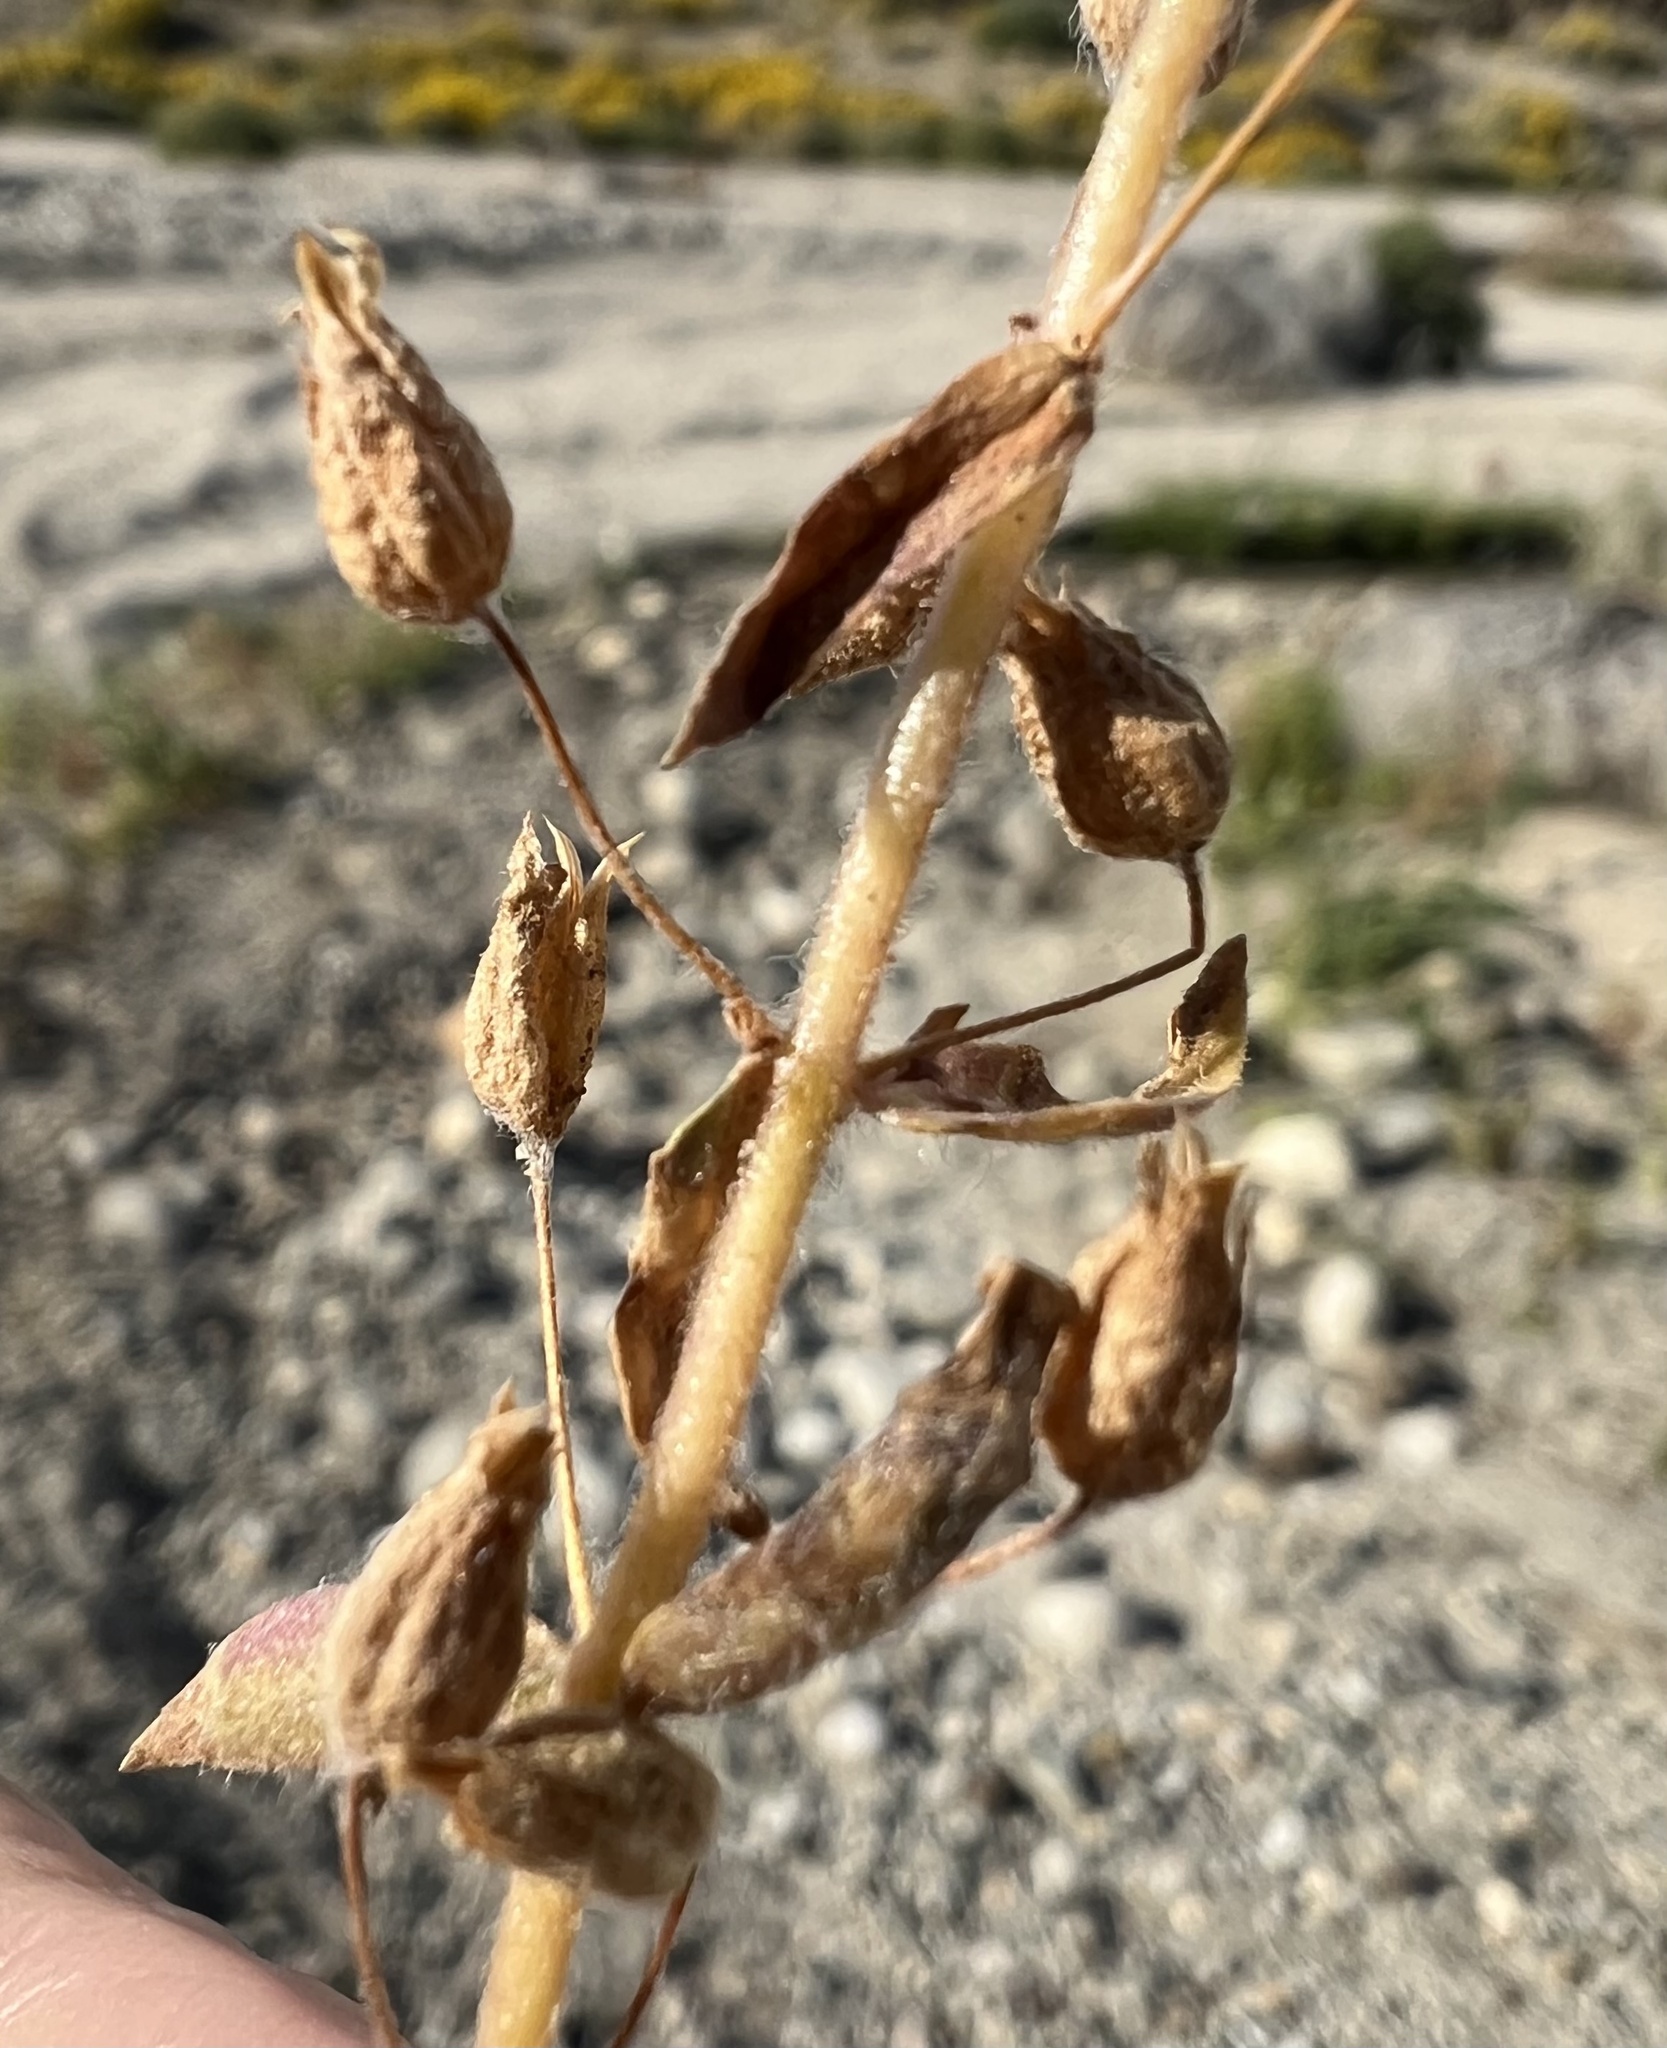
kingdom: Plantae
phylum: Tracheophyta
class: Magnoliopsida
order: Lamiales
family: Phrymaceae
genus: Mimetanthe
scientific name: Mimetanthe pilosa
